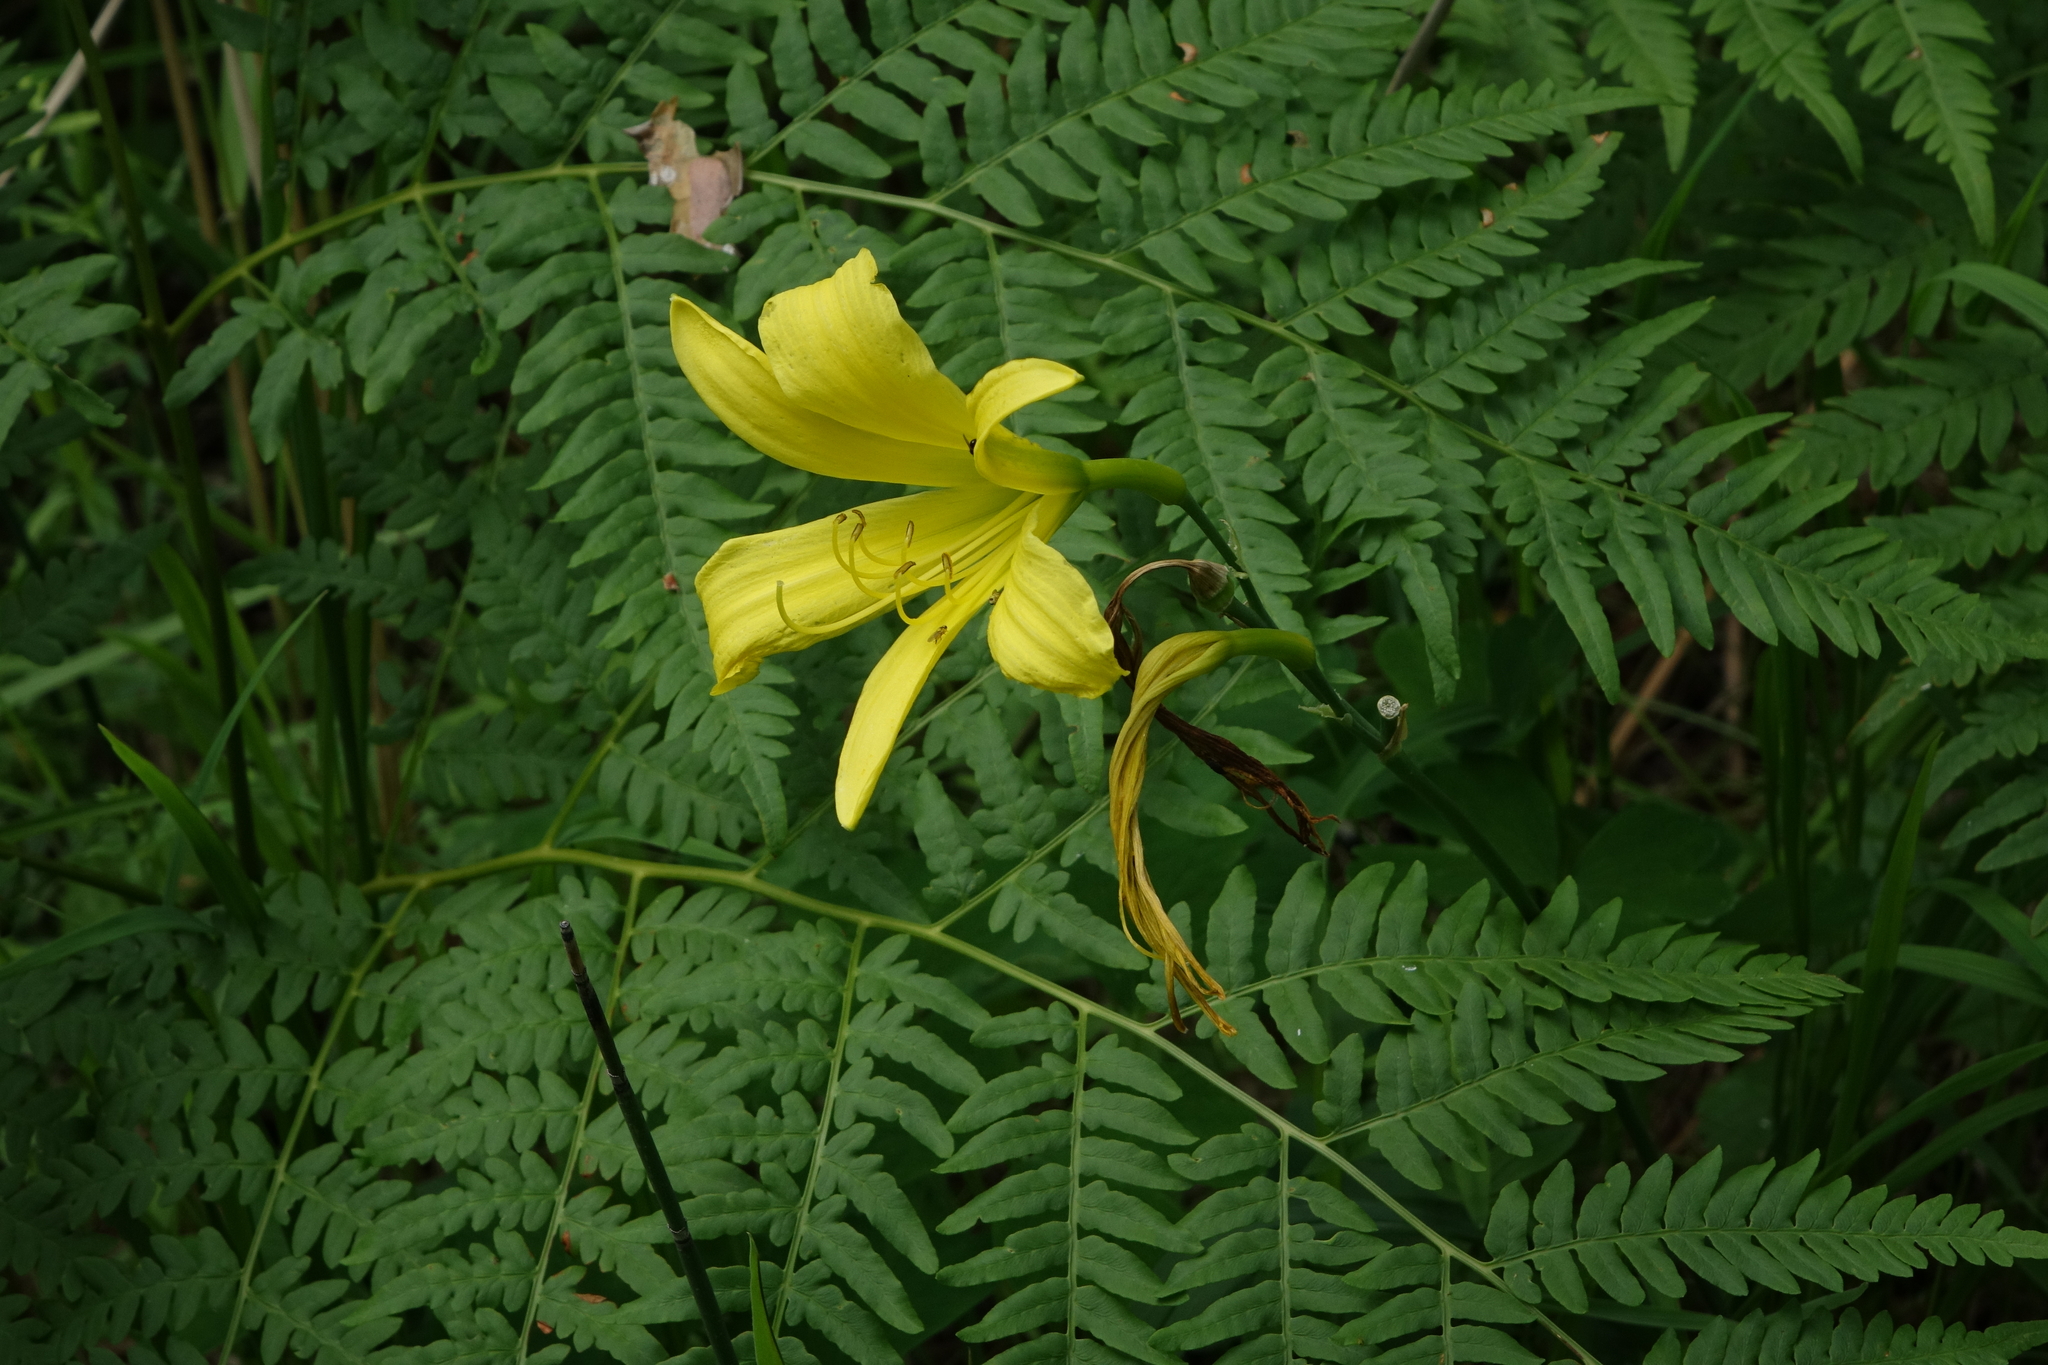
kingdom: Plantae
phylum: Tracheophyta
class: Polypodiopsida
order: Polypodiales
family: Dennstaedtiaceae
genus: Pteridium
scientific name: Pteridium aquilinum
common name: Bracken
